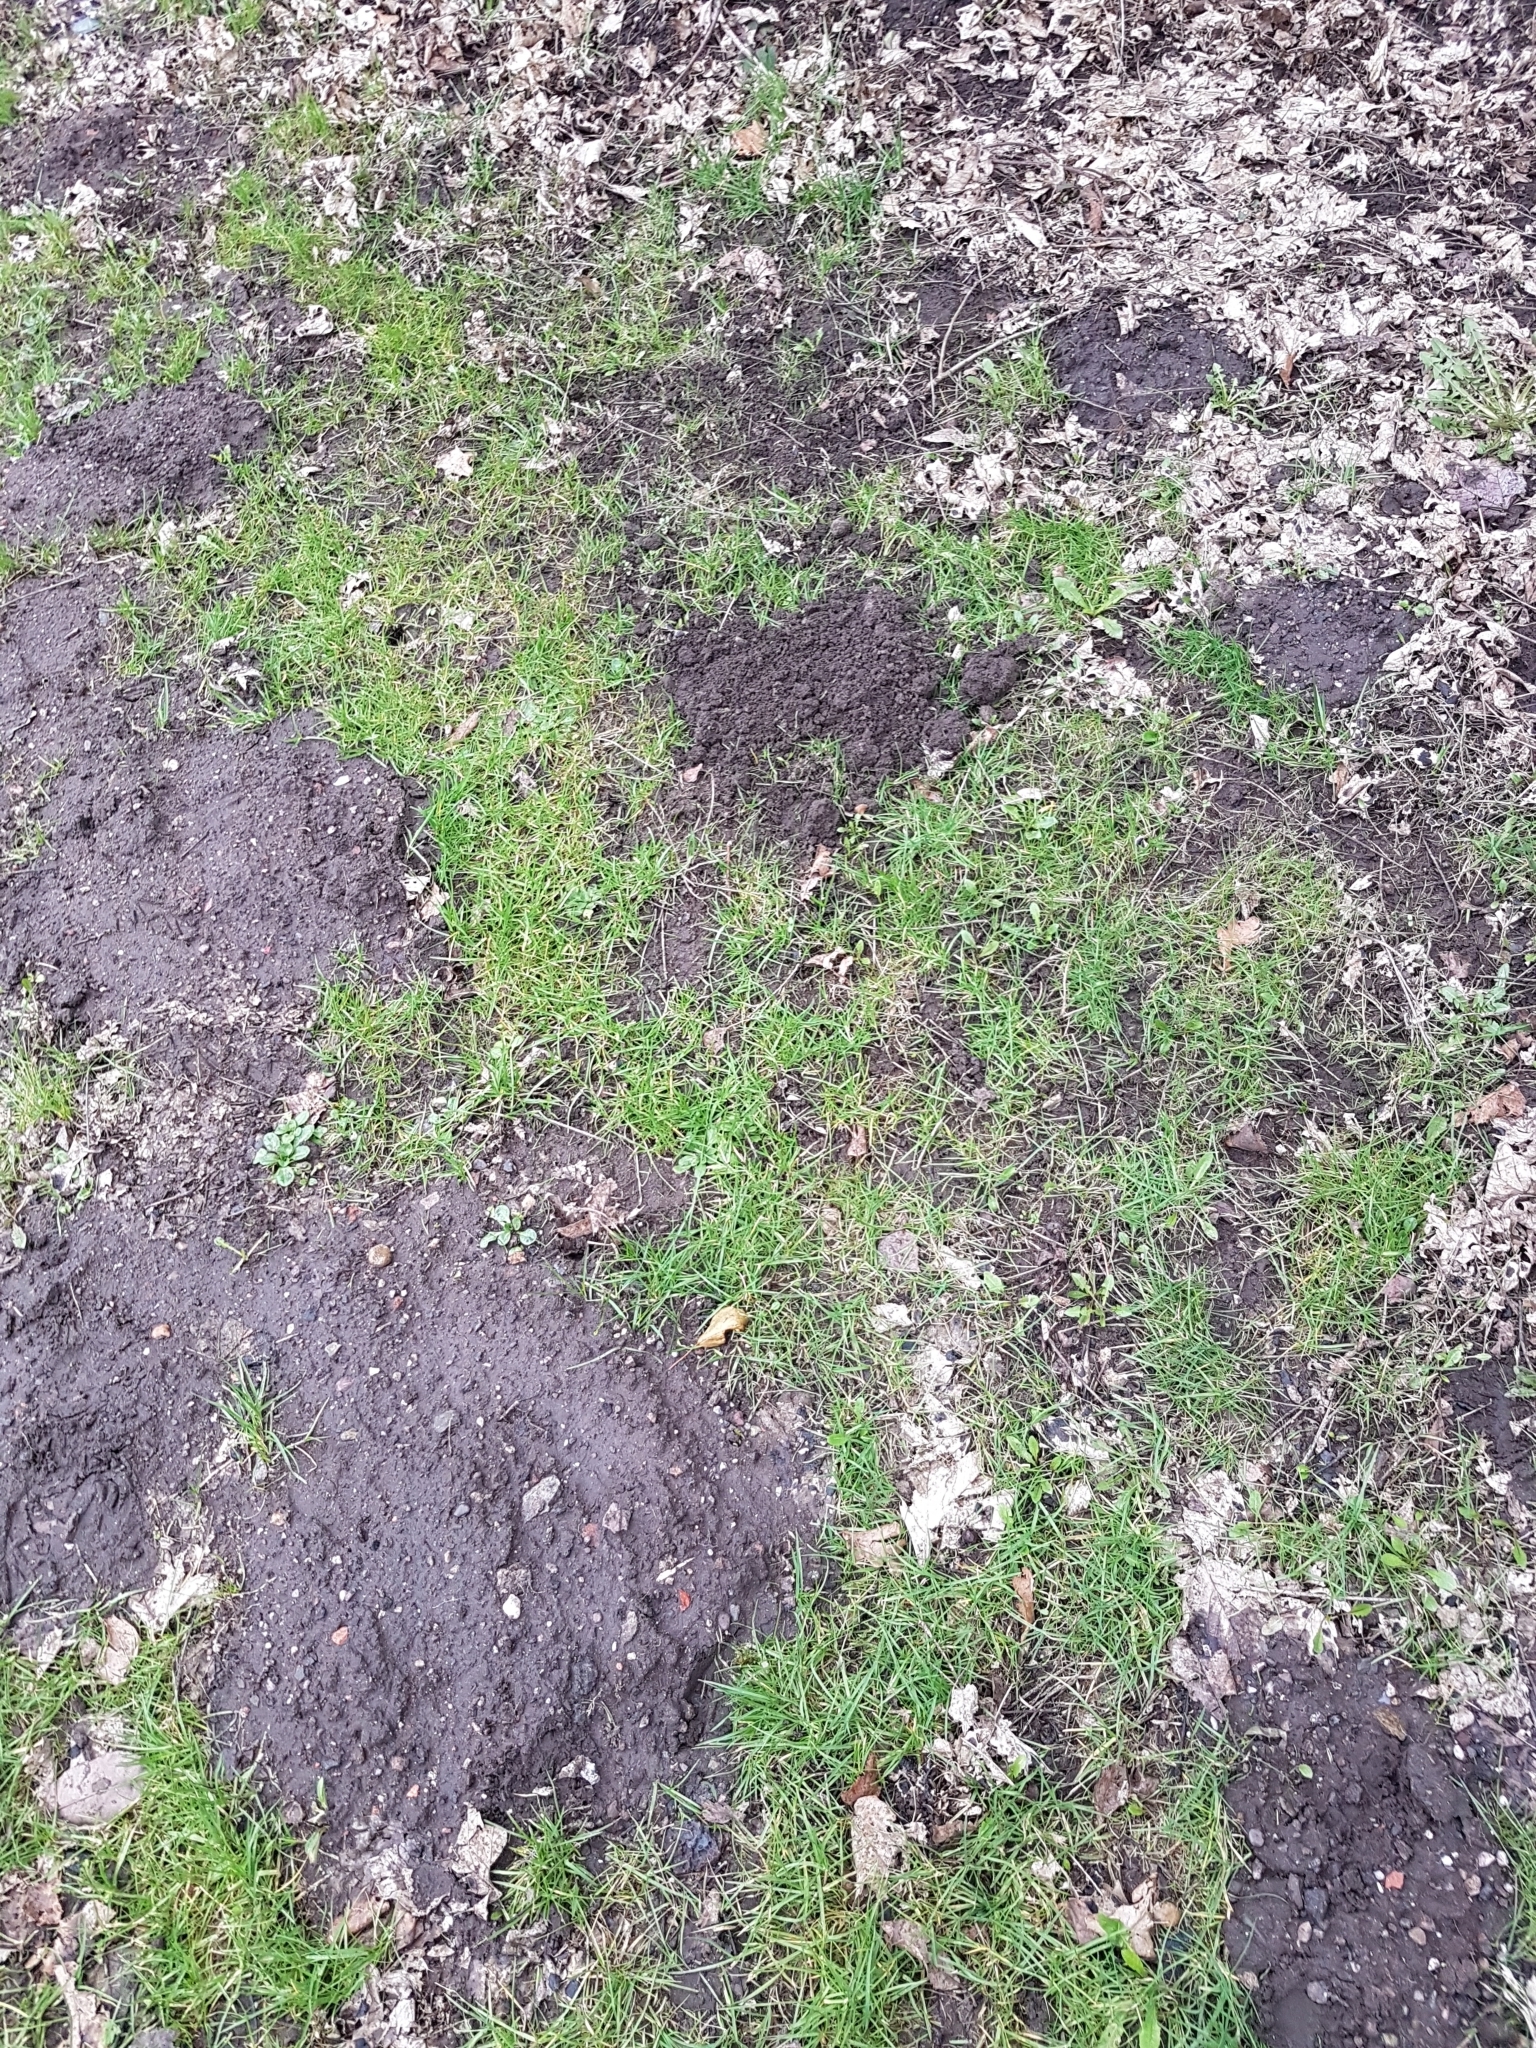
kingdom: Animalia
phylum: Chordata
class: Mammalia
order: Soricomorpha
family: Talpidae
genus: Talpa
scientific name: Talpa europaea
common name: European mole
